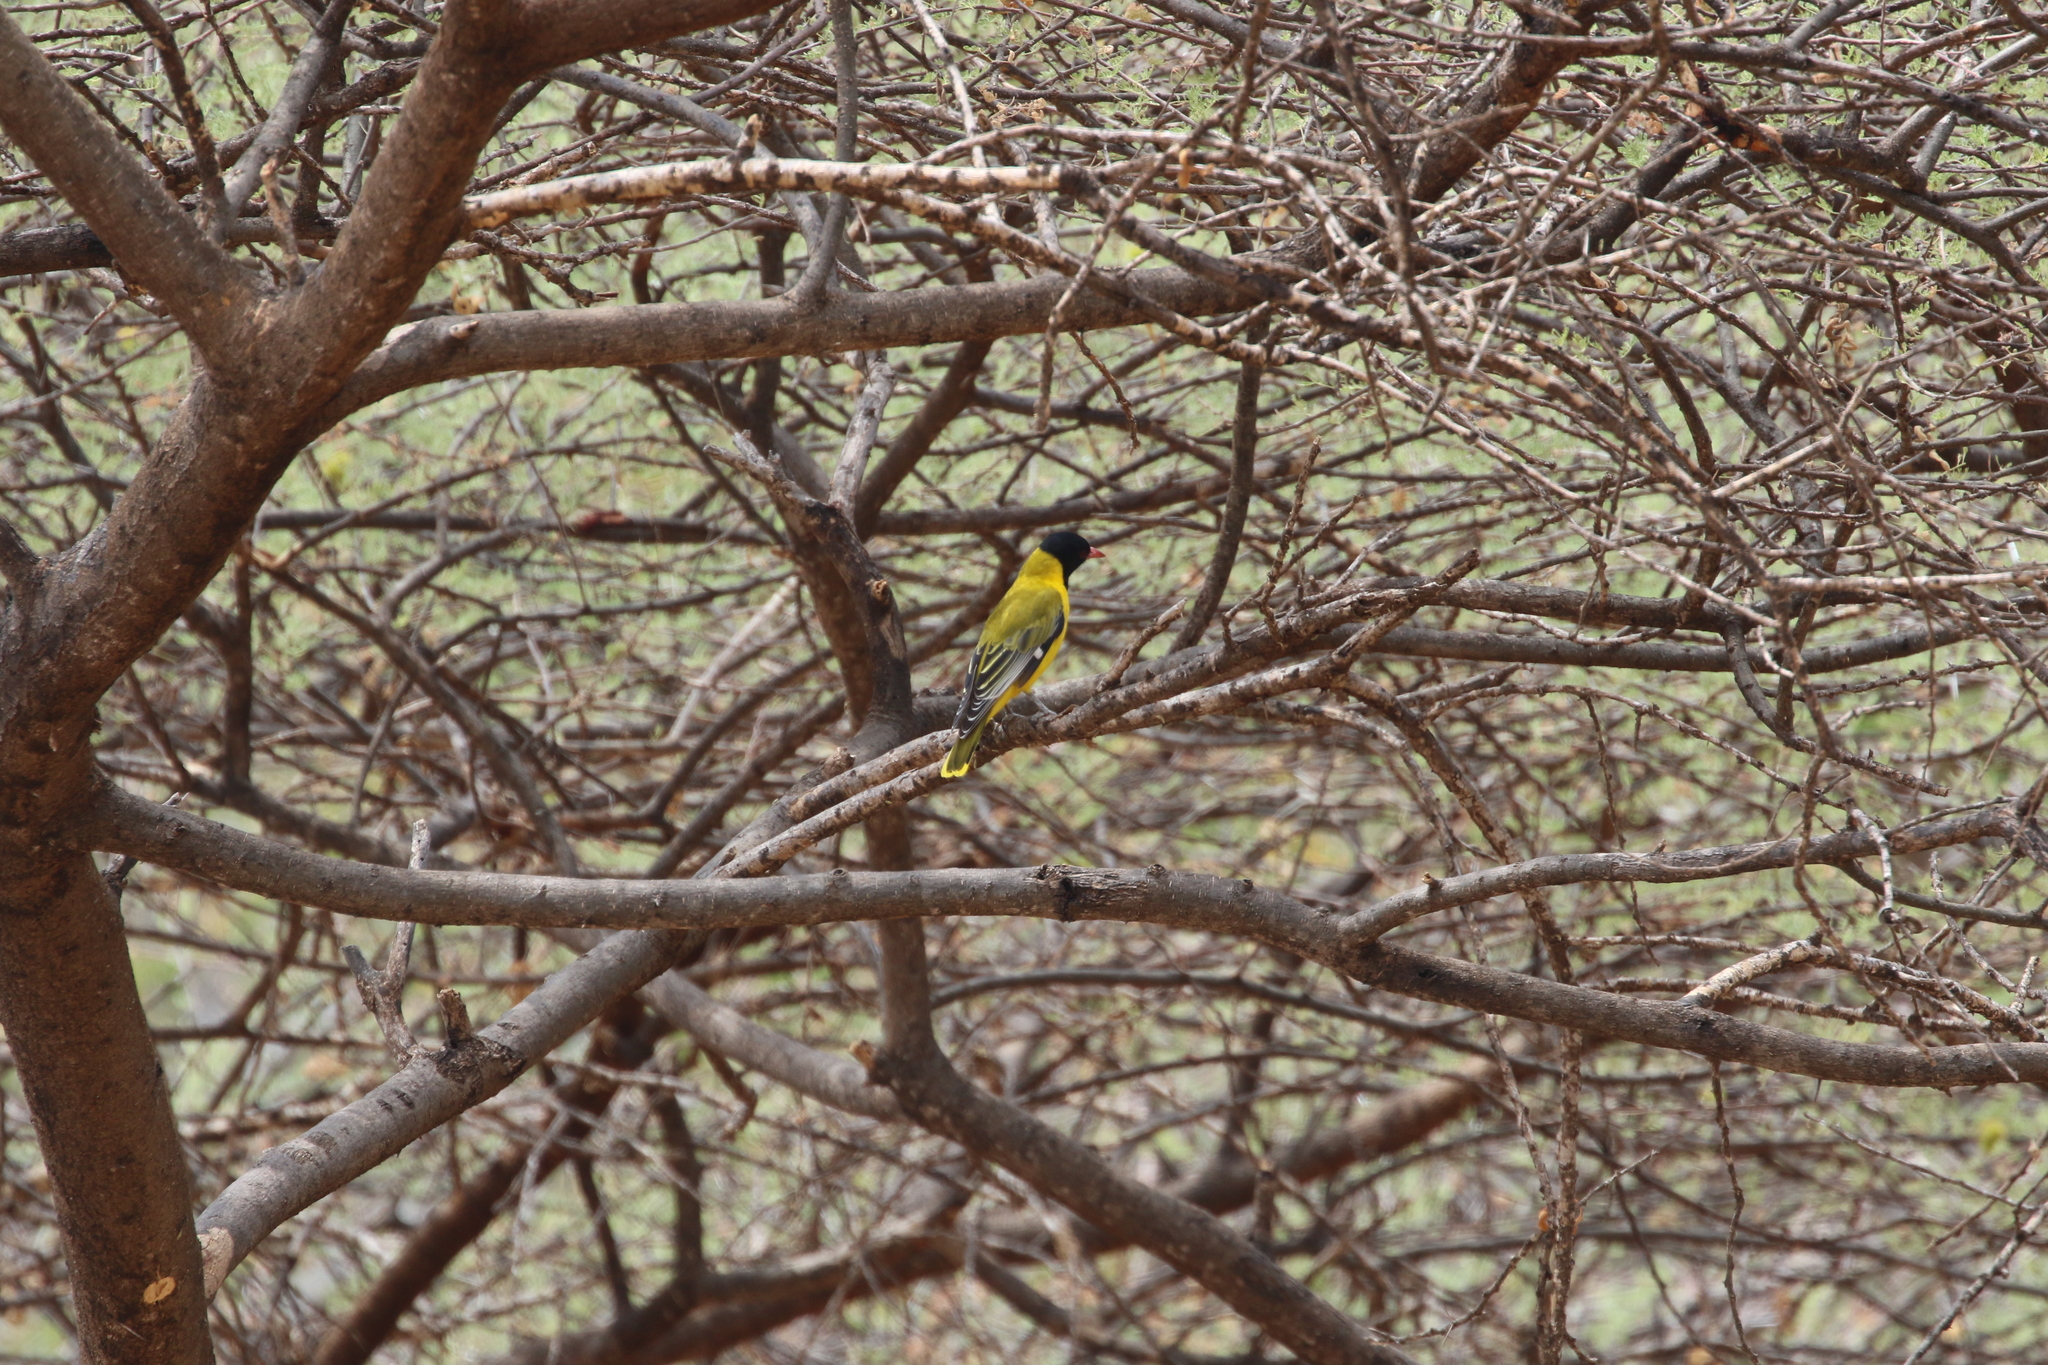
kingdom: Animalia
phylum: Chordata
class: Aves
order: Passeriformes
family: Oriolidae
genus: Oriolus
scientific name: Oriolus larvatus
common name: Black-headed oriole
